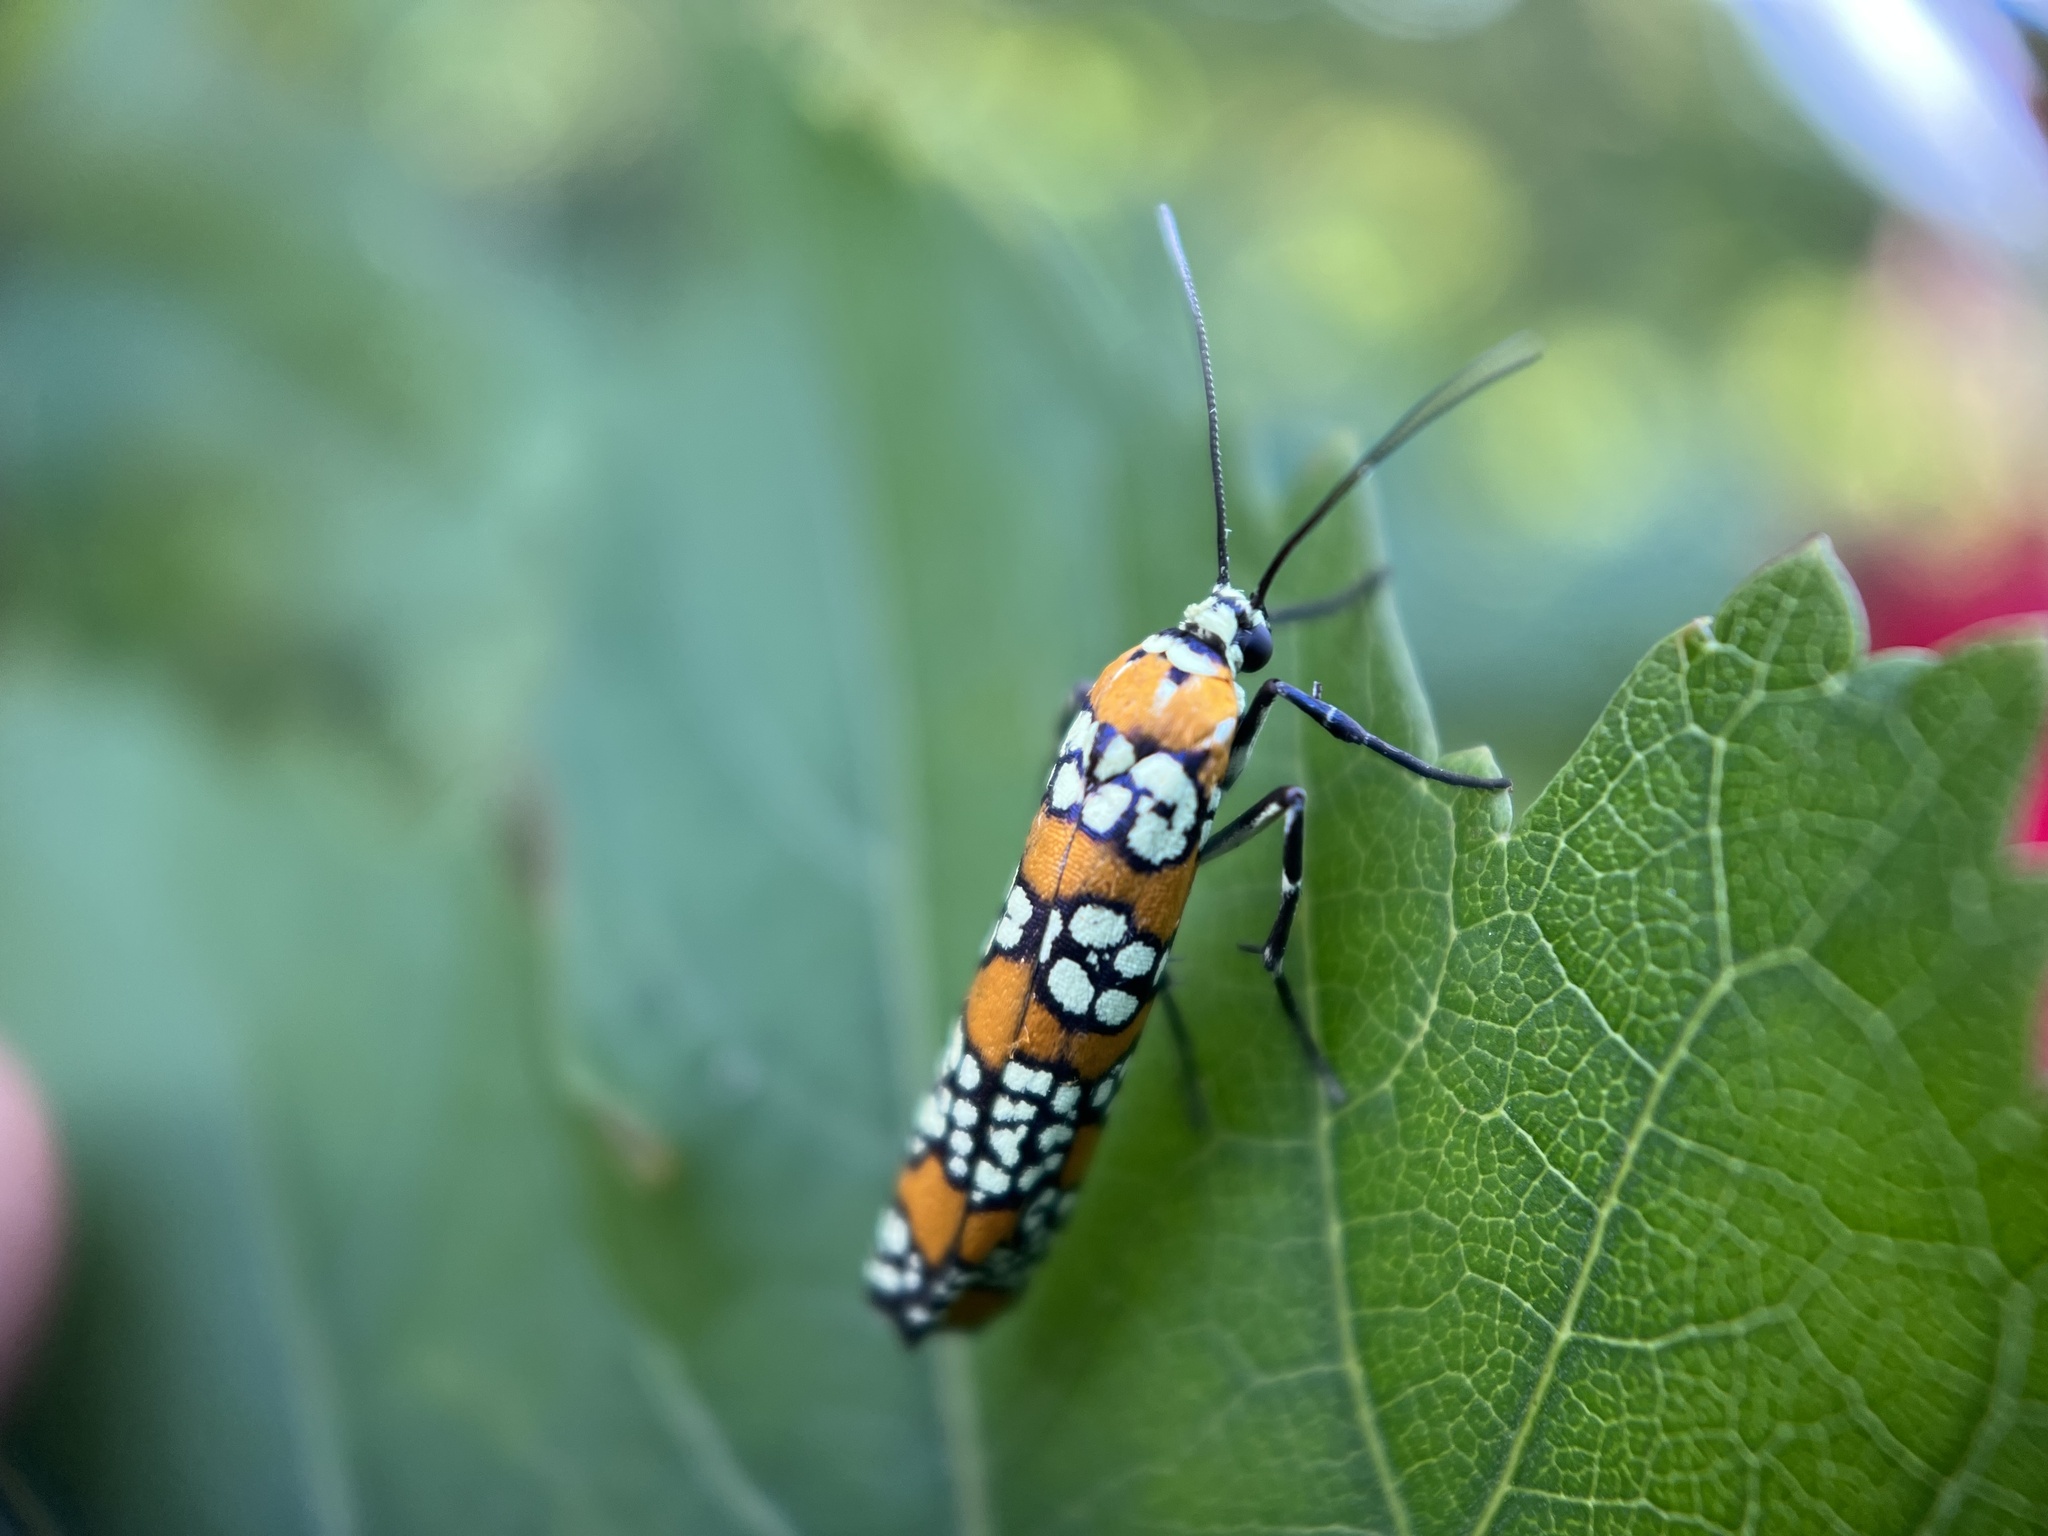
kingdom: Animalia
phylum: Arthropoda
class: Insecta
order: Lepidoptera
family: Attevidae
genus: Atteva
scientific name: Atteva punctella
